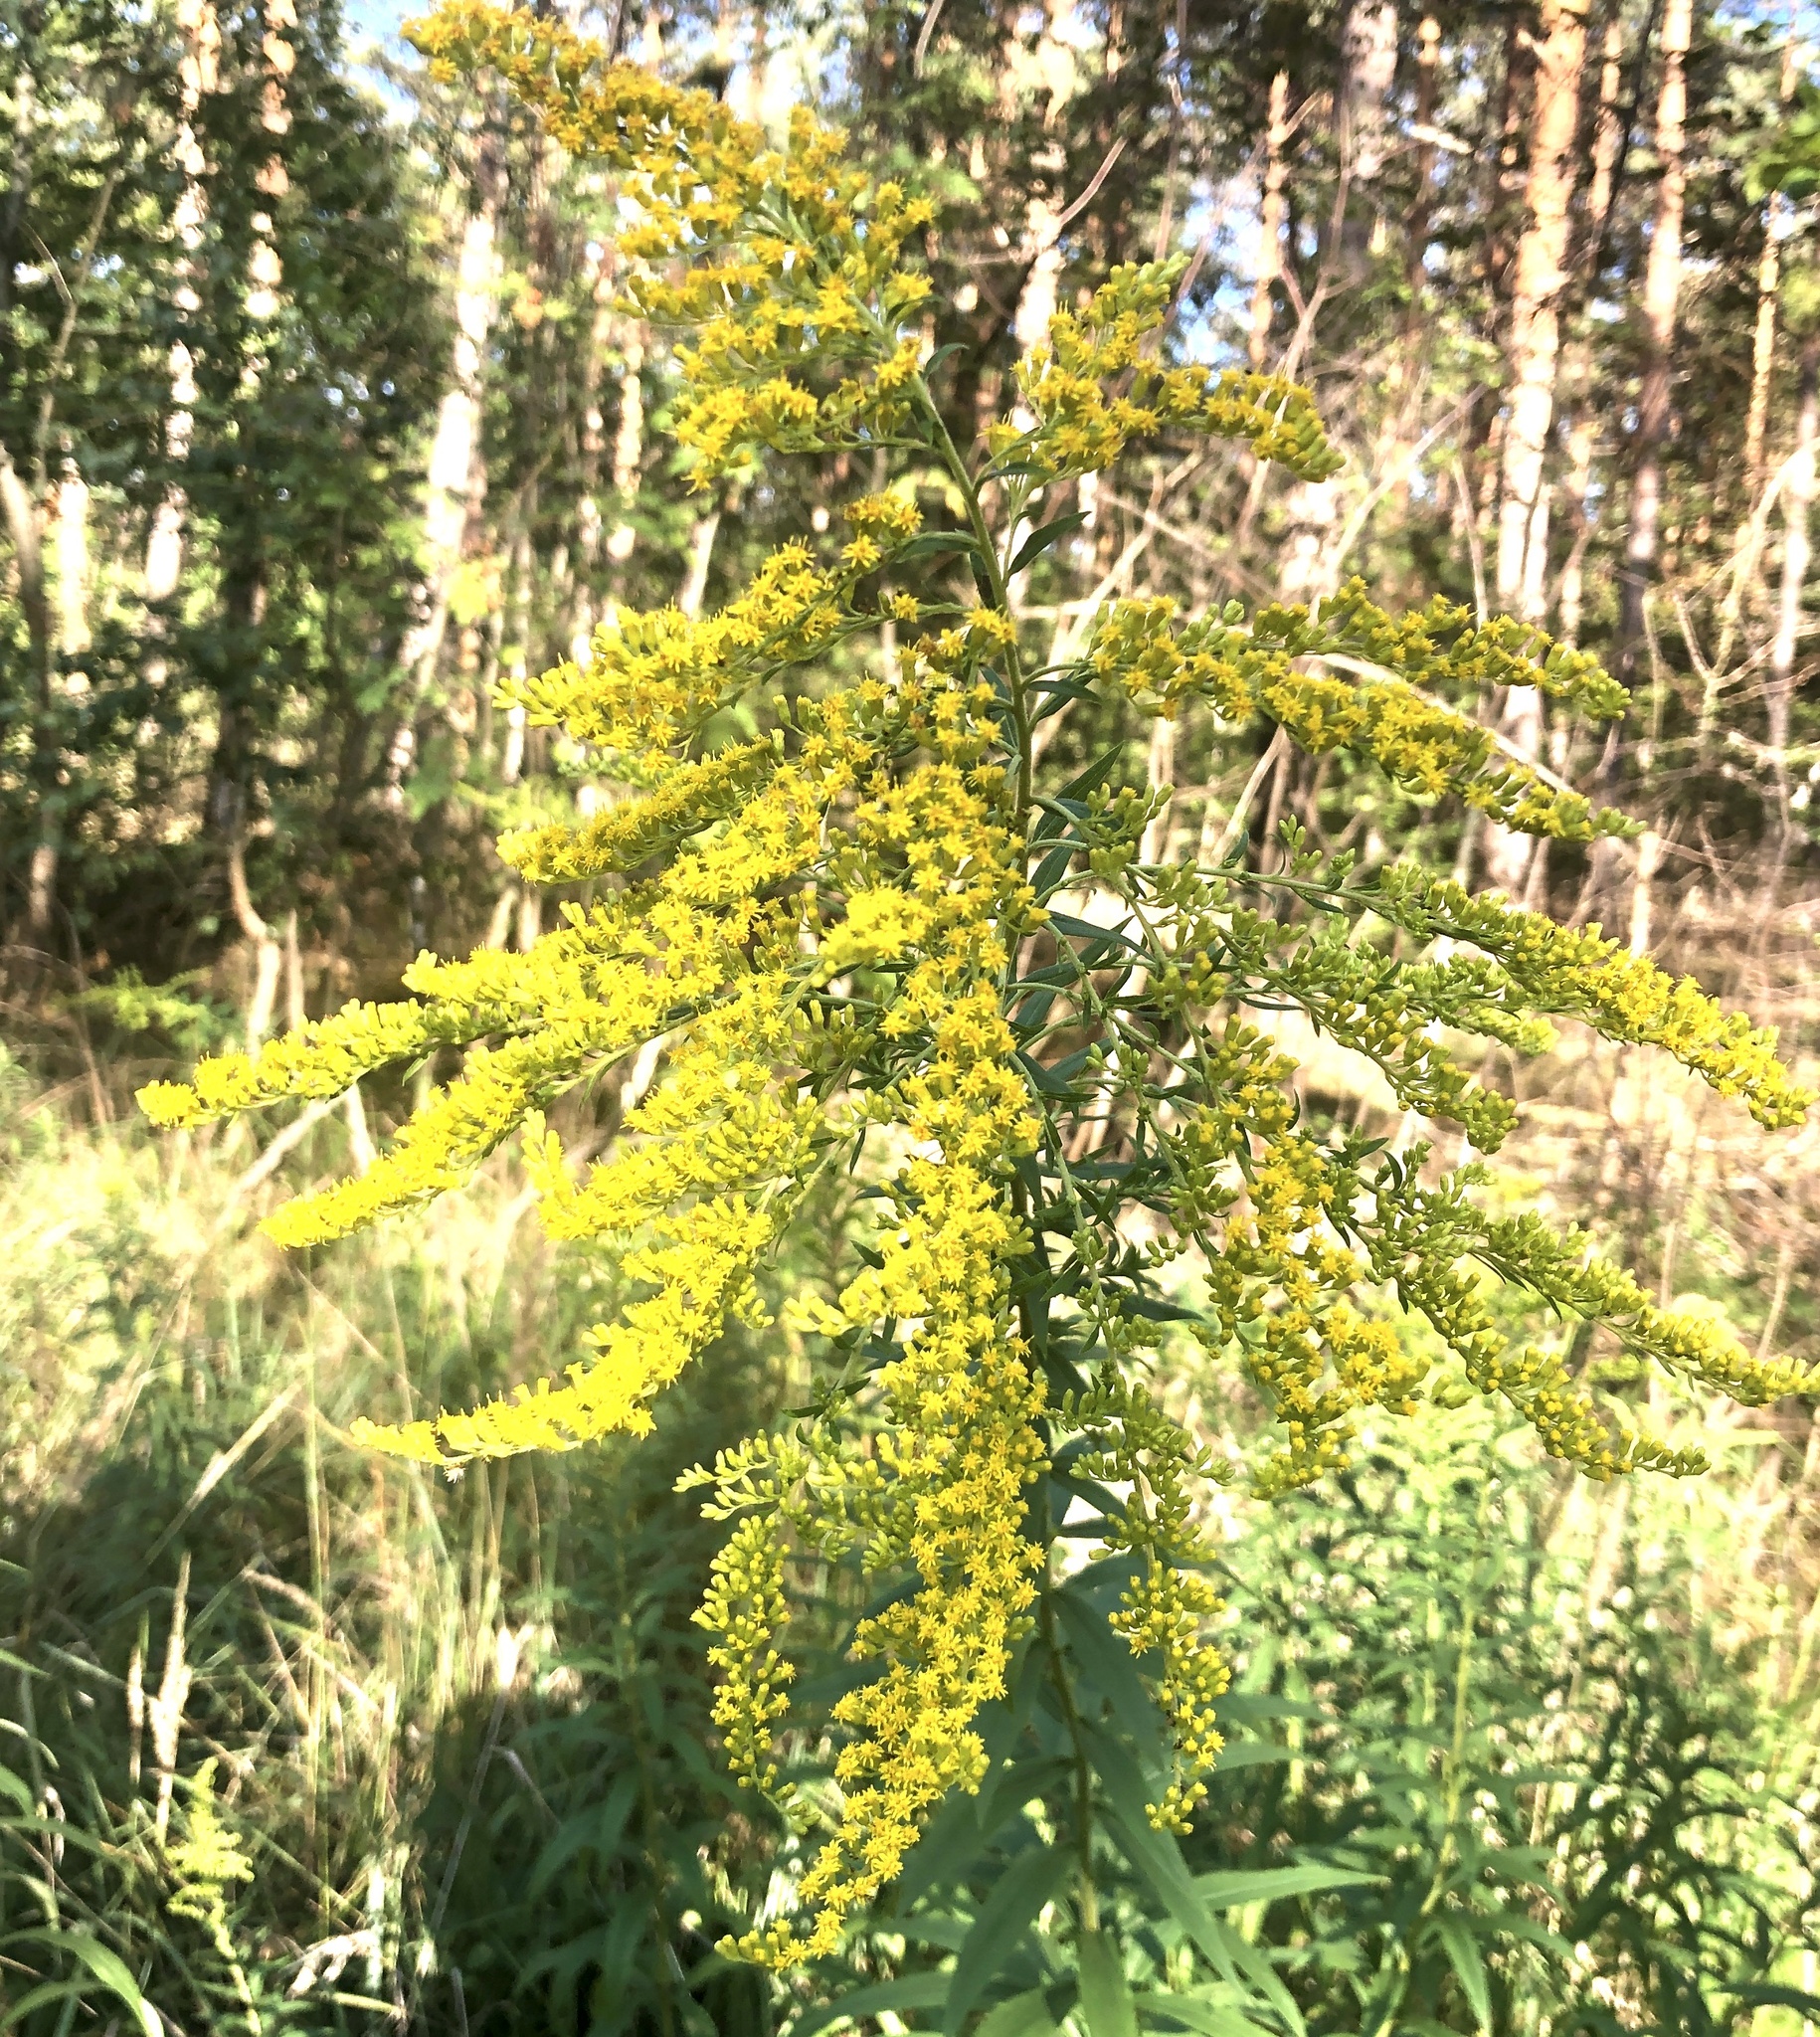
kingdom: Plantae
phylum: Tracheophyta
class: Magnoliopsida
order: Asterales
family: Asteraceae
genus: Solidago
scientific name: Solidago canadensis
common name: Canada goldenrod
